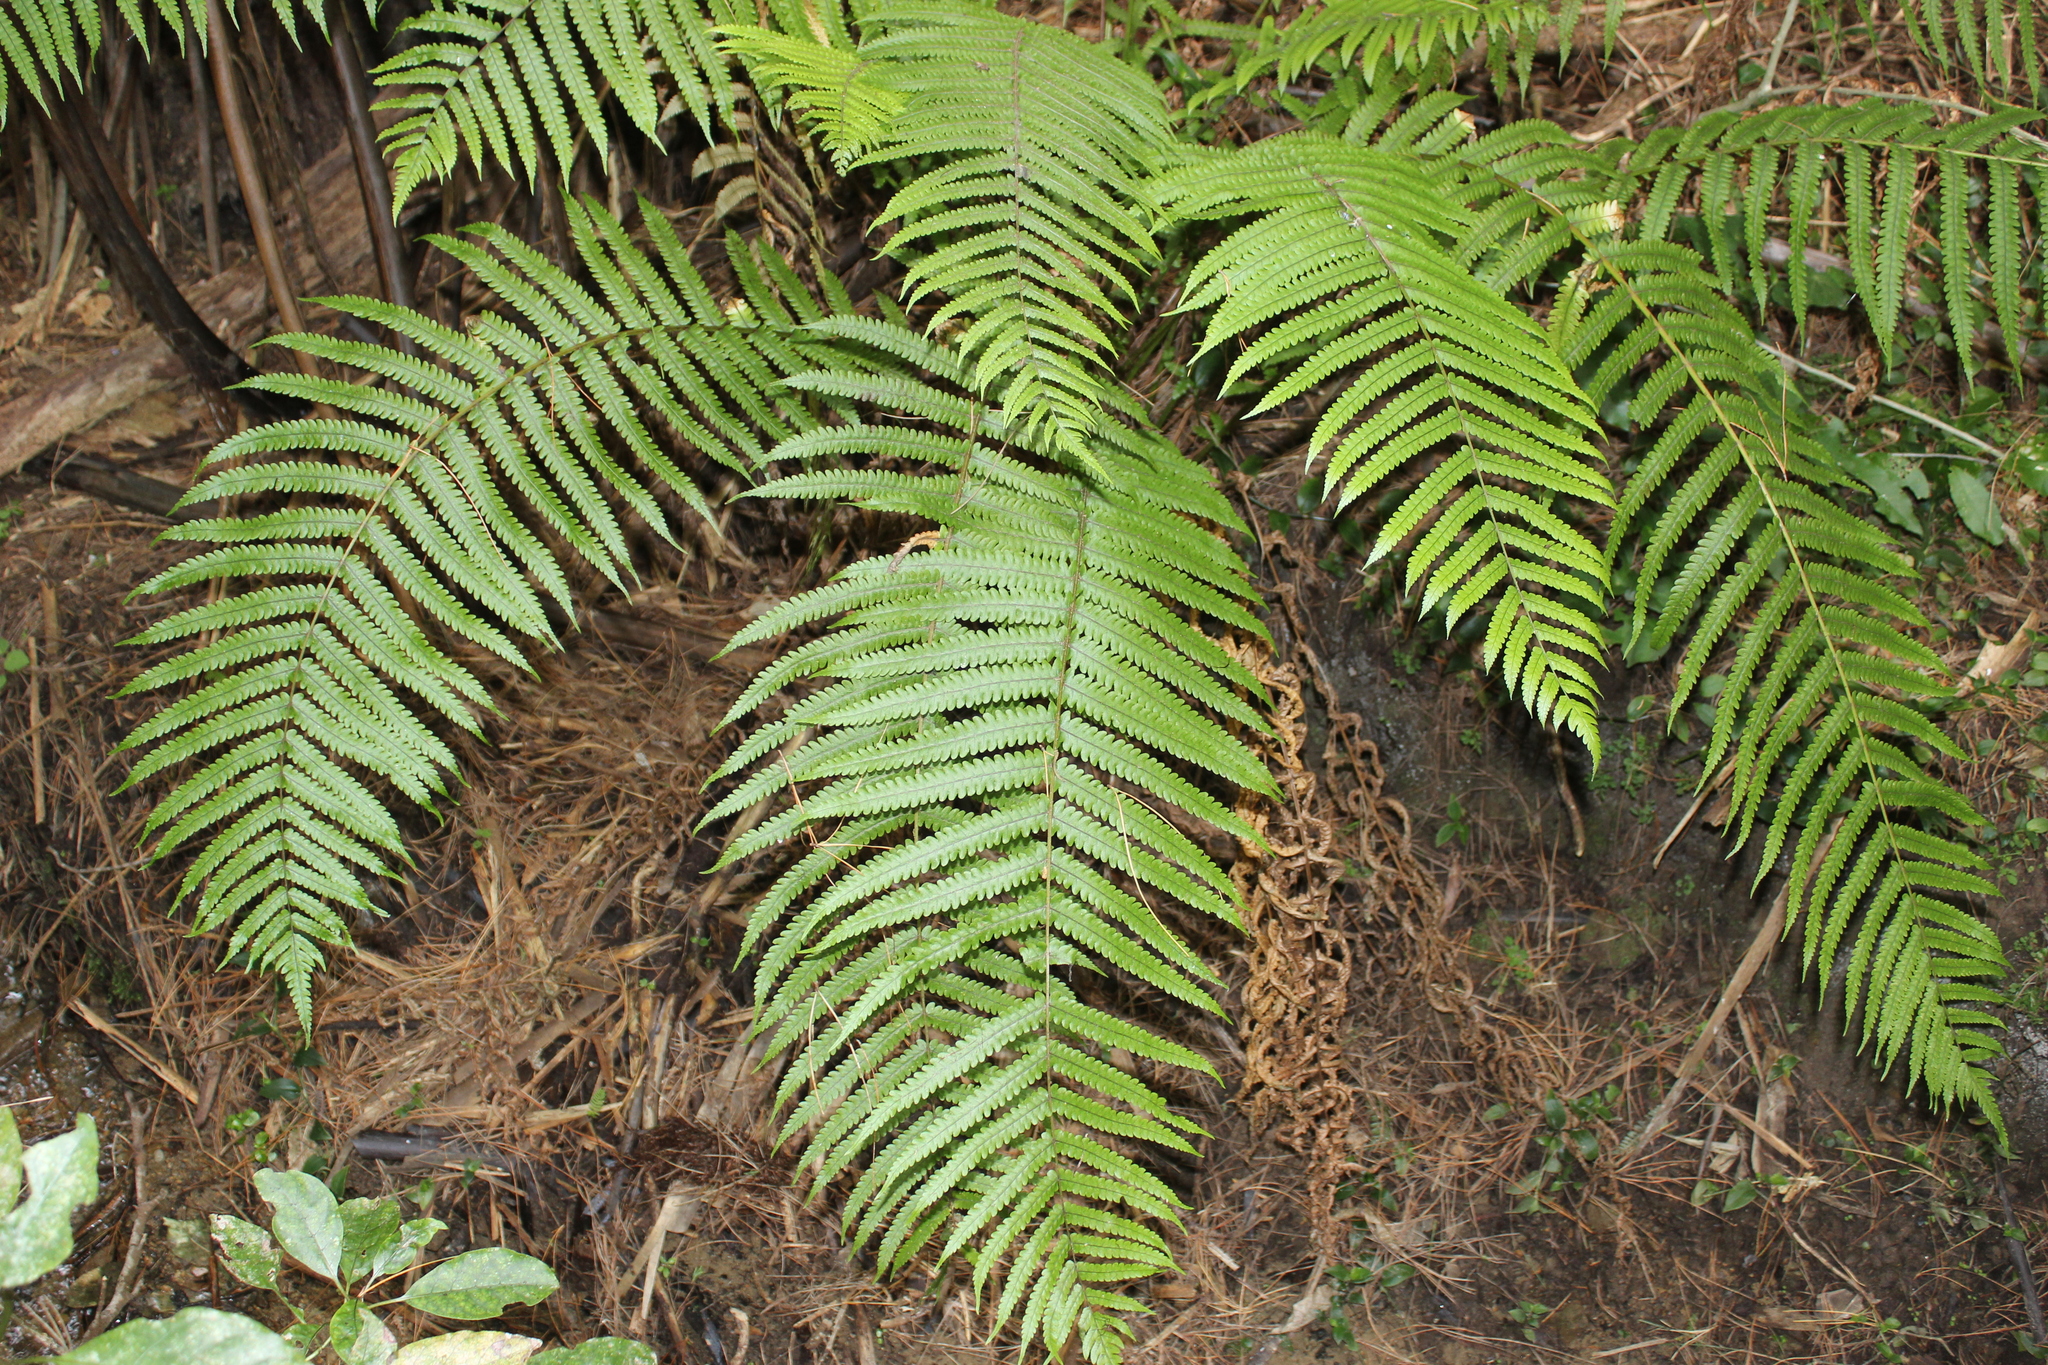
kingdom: Plantae
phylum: Tracheophyta
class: Polypodiopsida
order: Polypodiales
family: Thelypteridaceae
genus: Pakau
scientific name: Pakau pennigera
